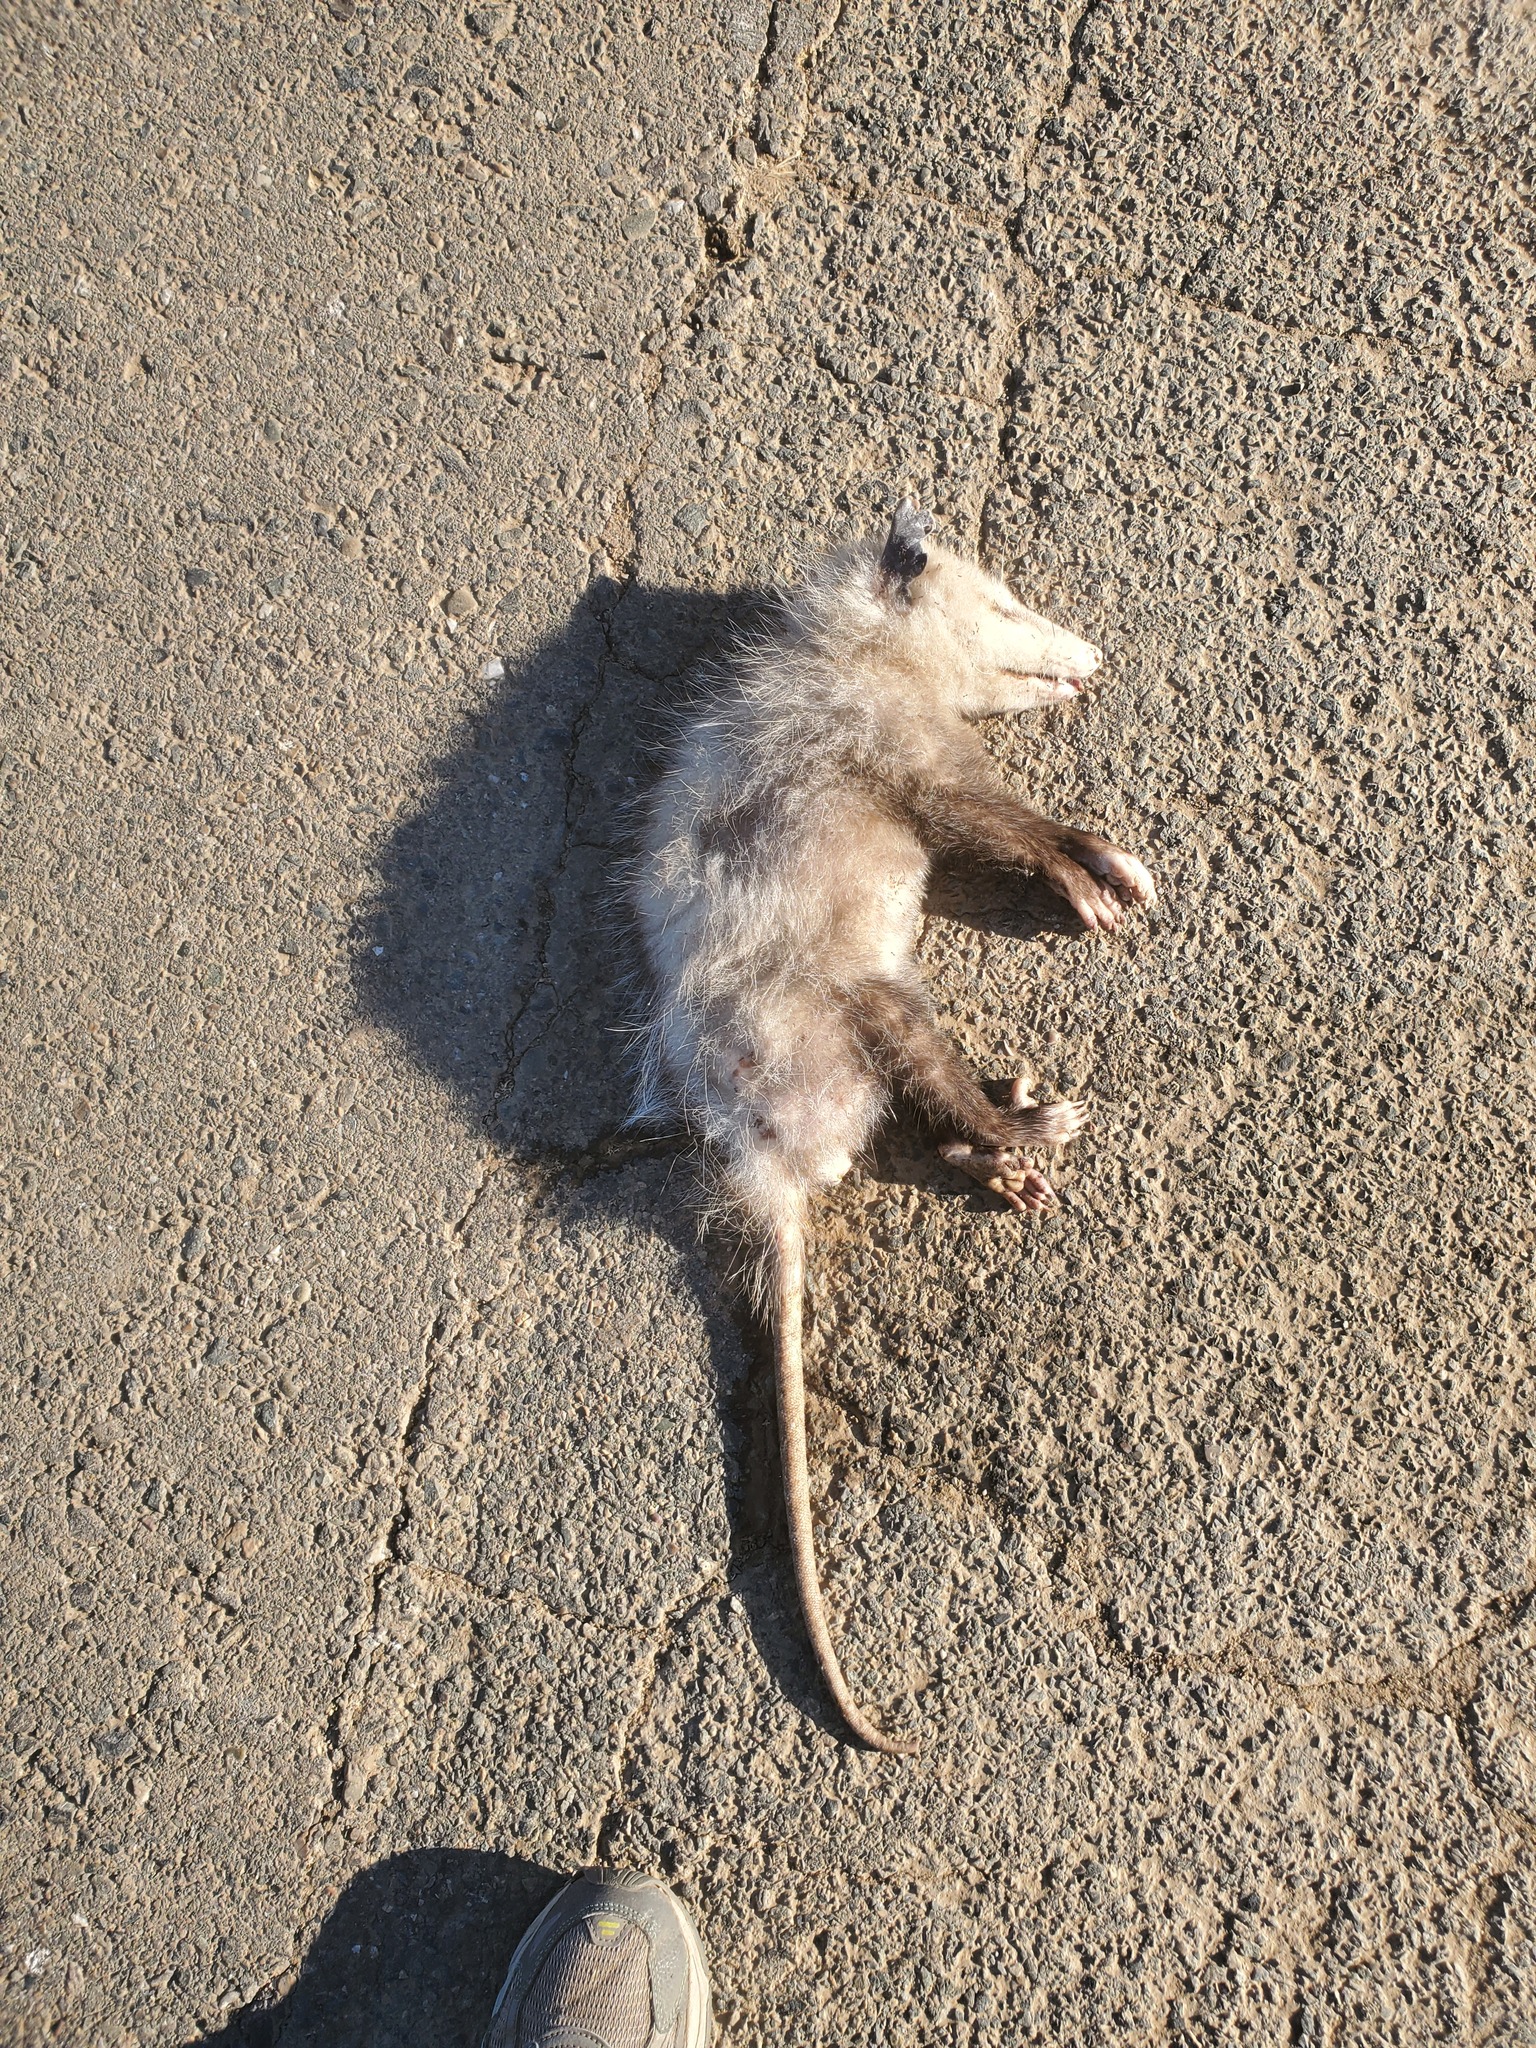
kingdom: Animalia
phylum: Chordata
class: Mammalia
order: Didelphimorphia
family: Didelphidae
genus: Didelphis
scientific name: Didelphis virginiana
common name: Virginia opossum
